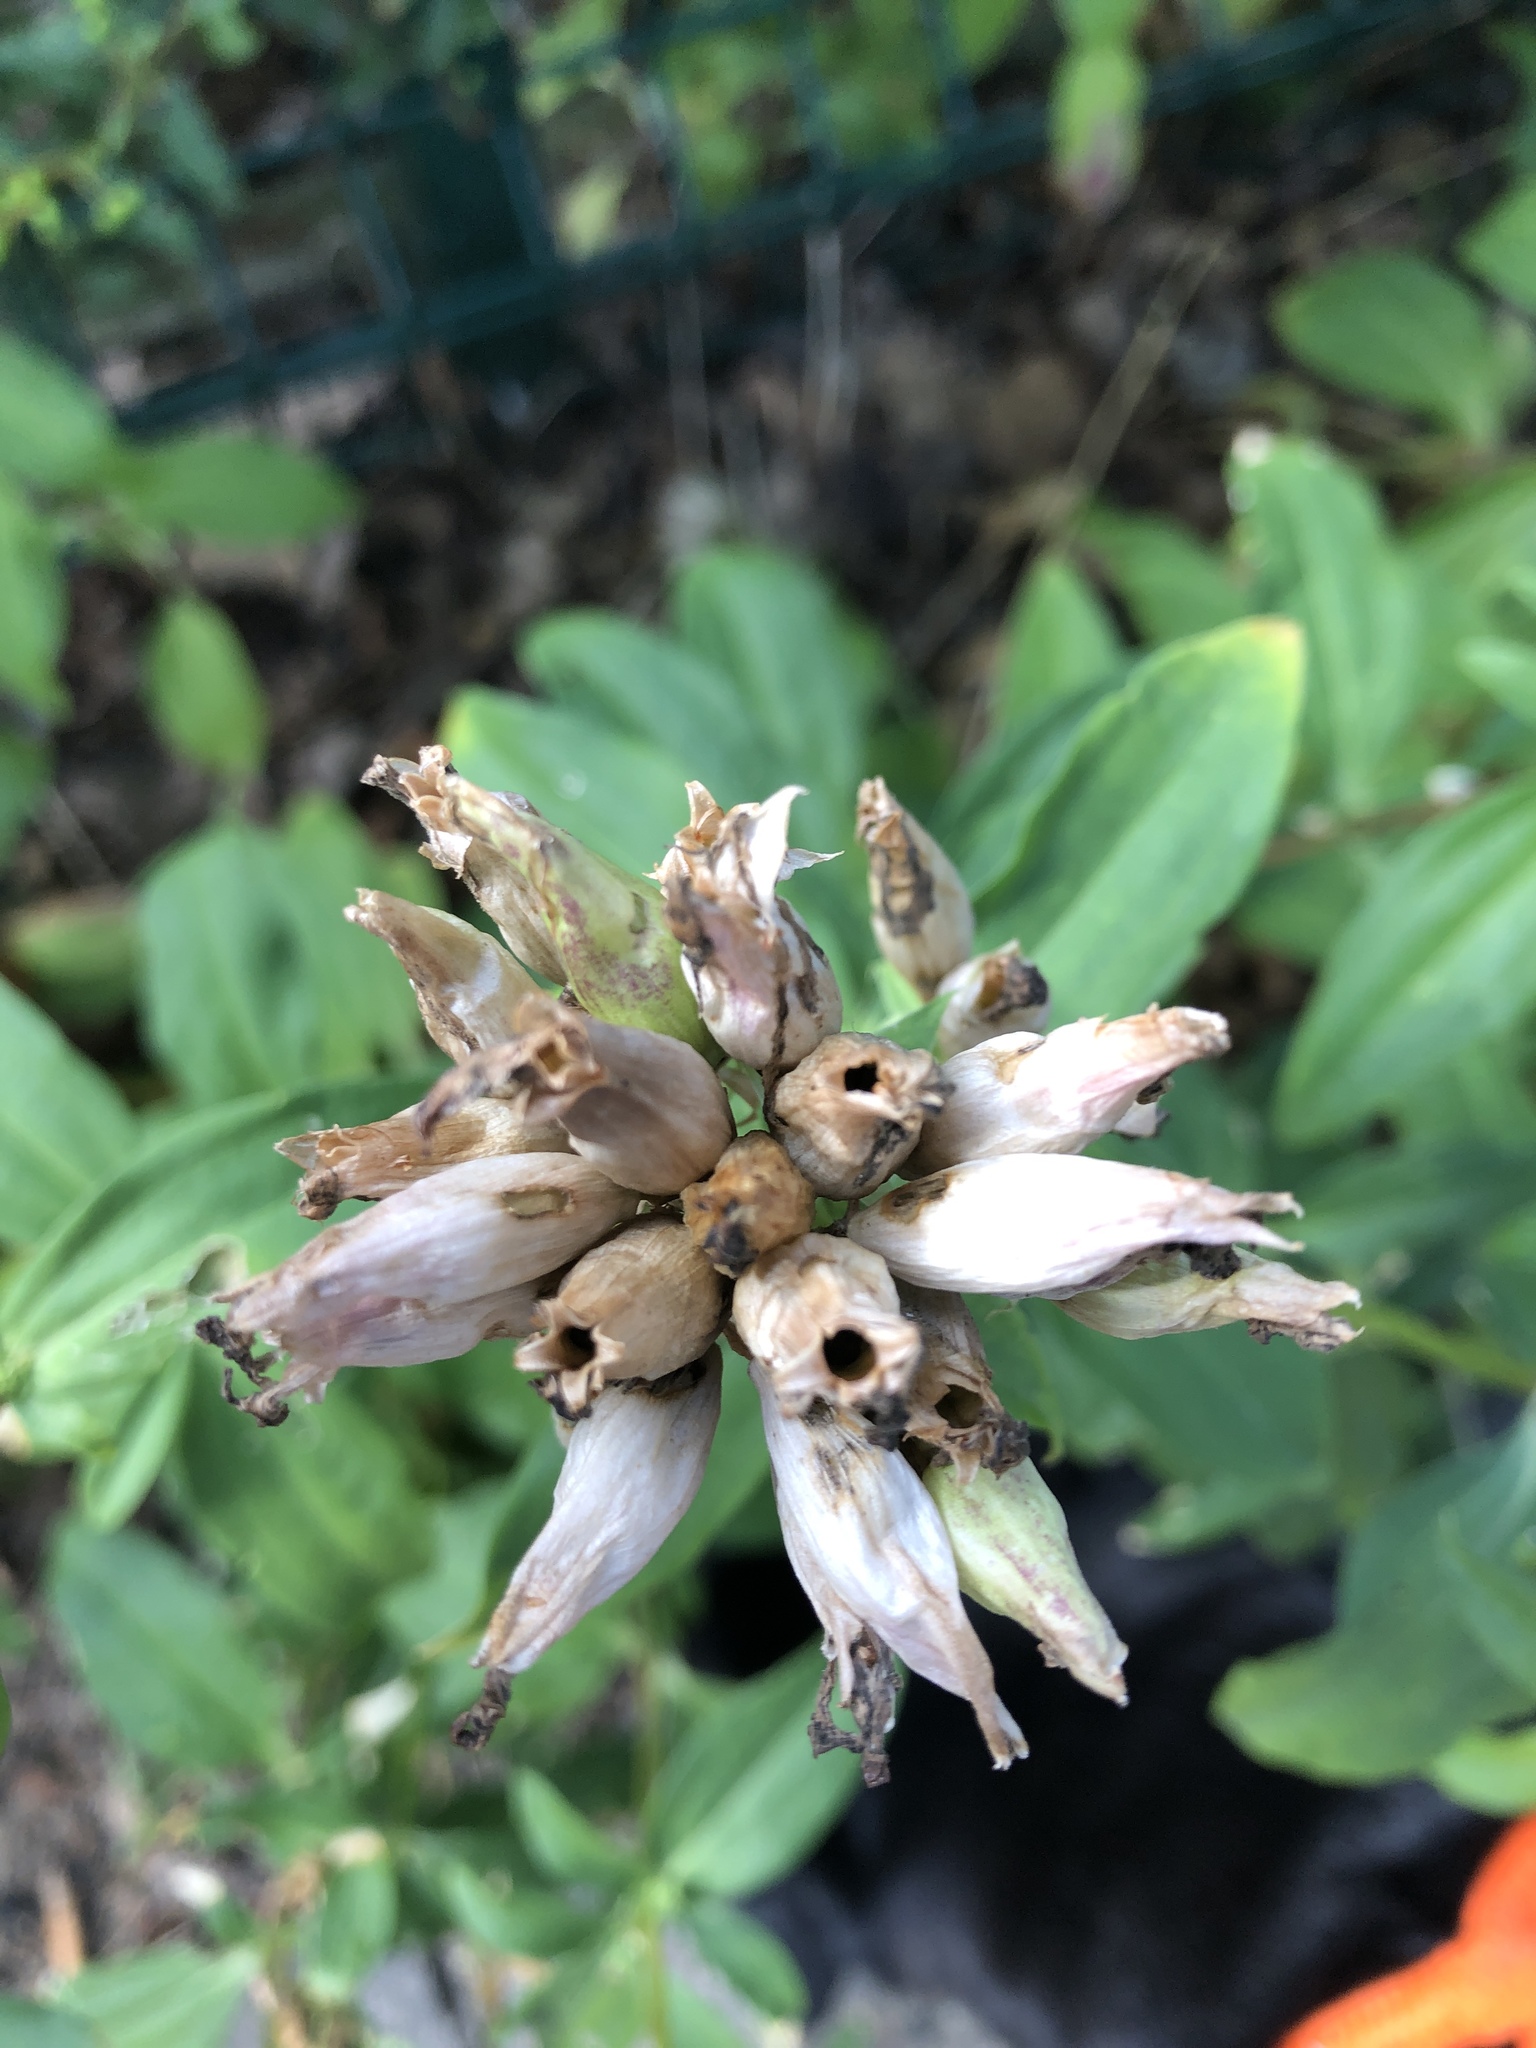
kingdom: Plantae
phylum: Tracheophyta
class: Magnoliopsida
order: Caryophyllales
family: Caryophyllaceae
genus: Saponaria
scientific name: Saponaria officinalis
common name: Soapwort
